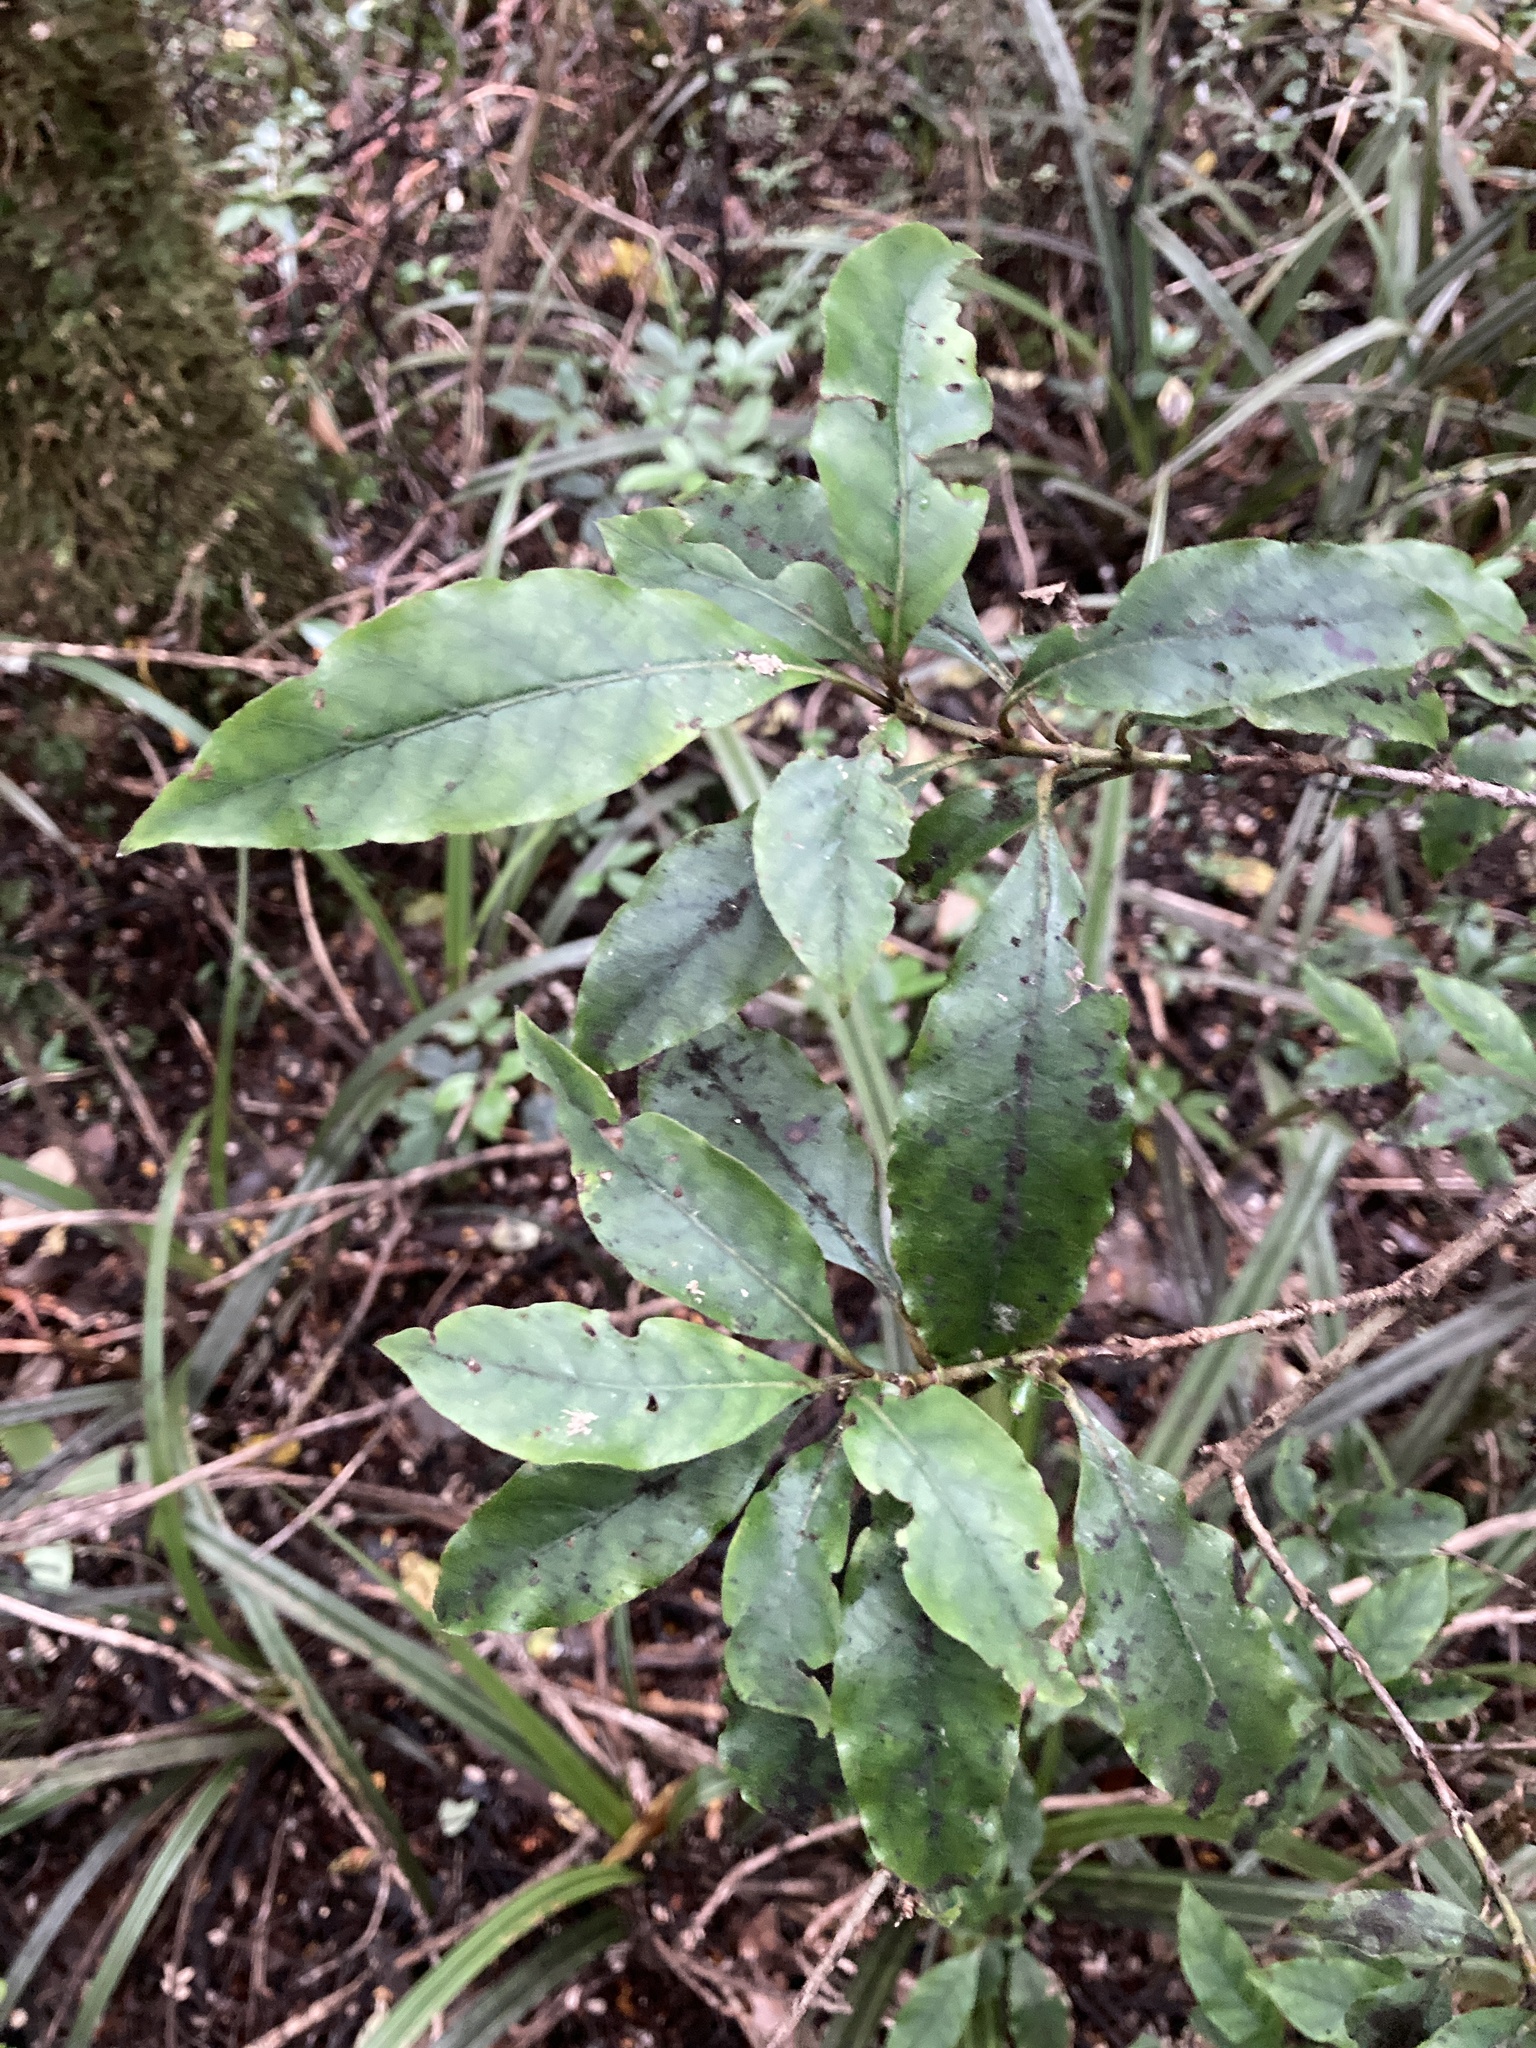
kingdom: Plantae
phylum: Tracheophyta
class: Magnoliopsida
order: Gentianales
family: Rubiaceae
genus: Coprosma
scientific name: Coprosma tenuifolia
